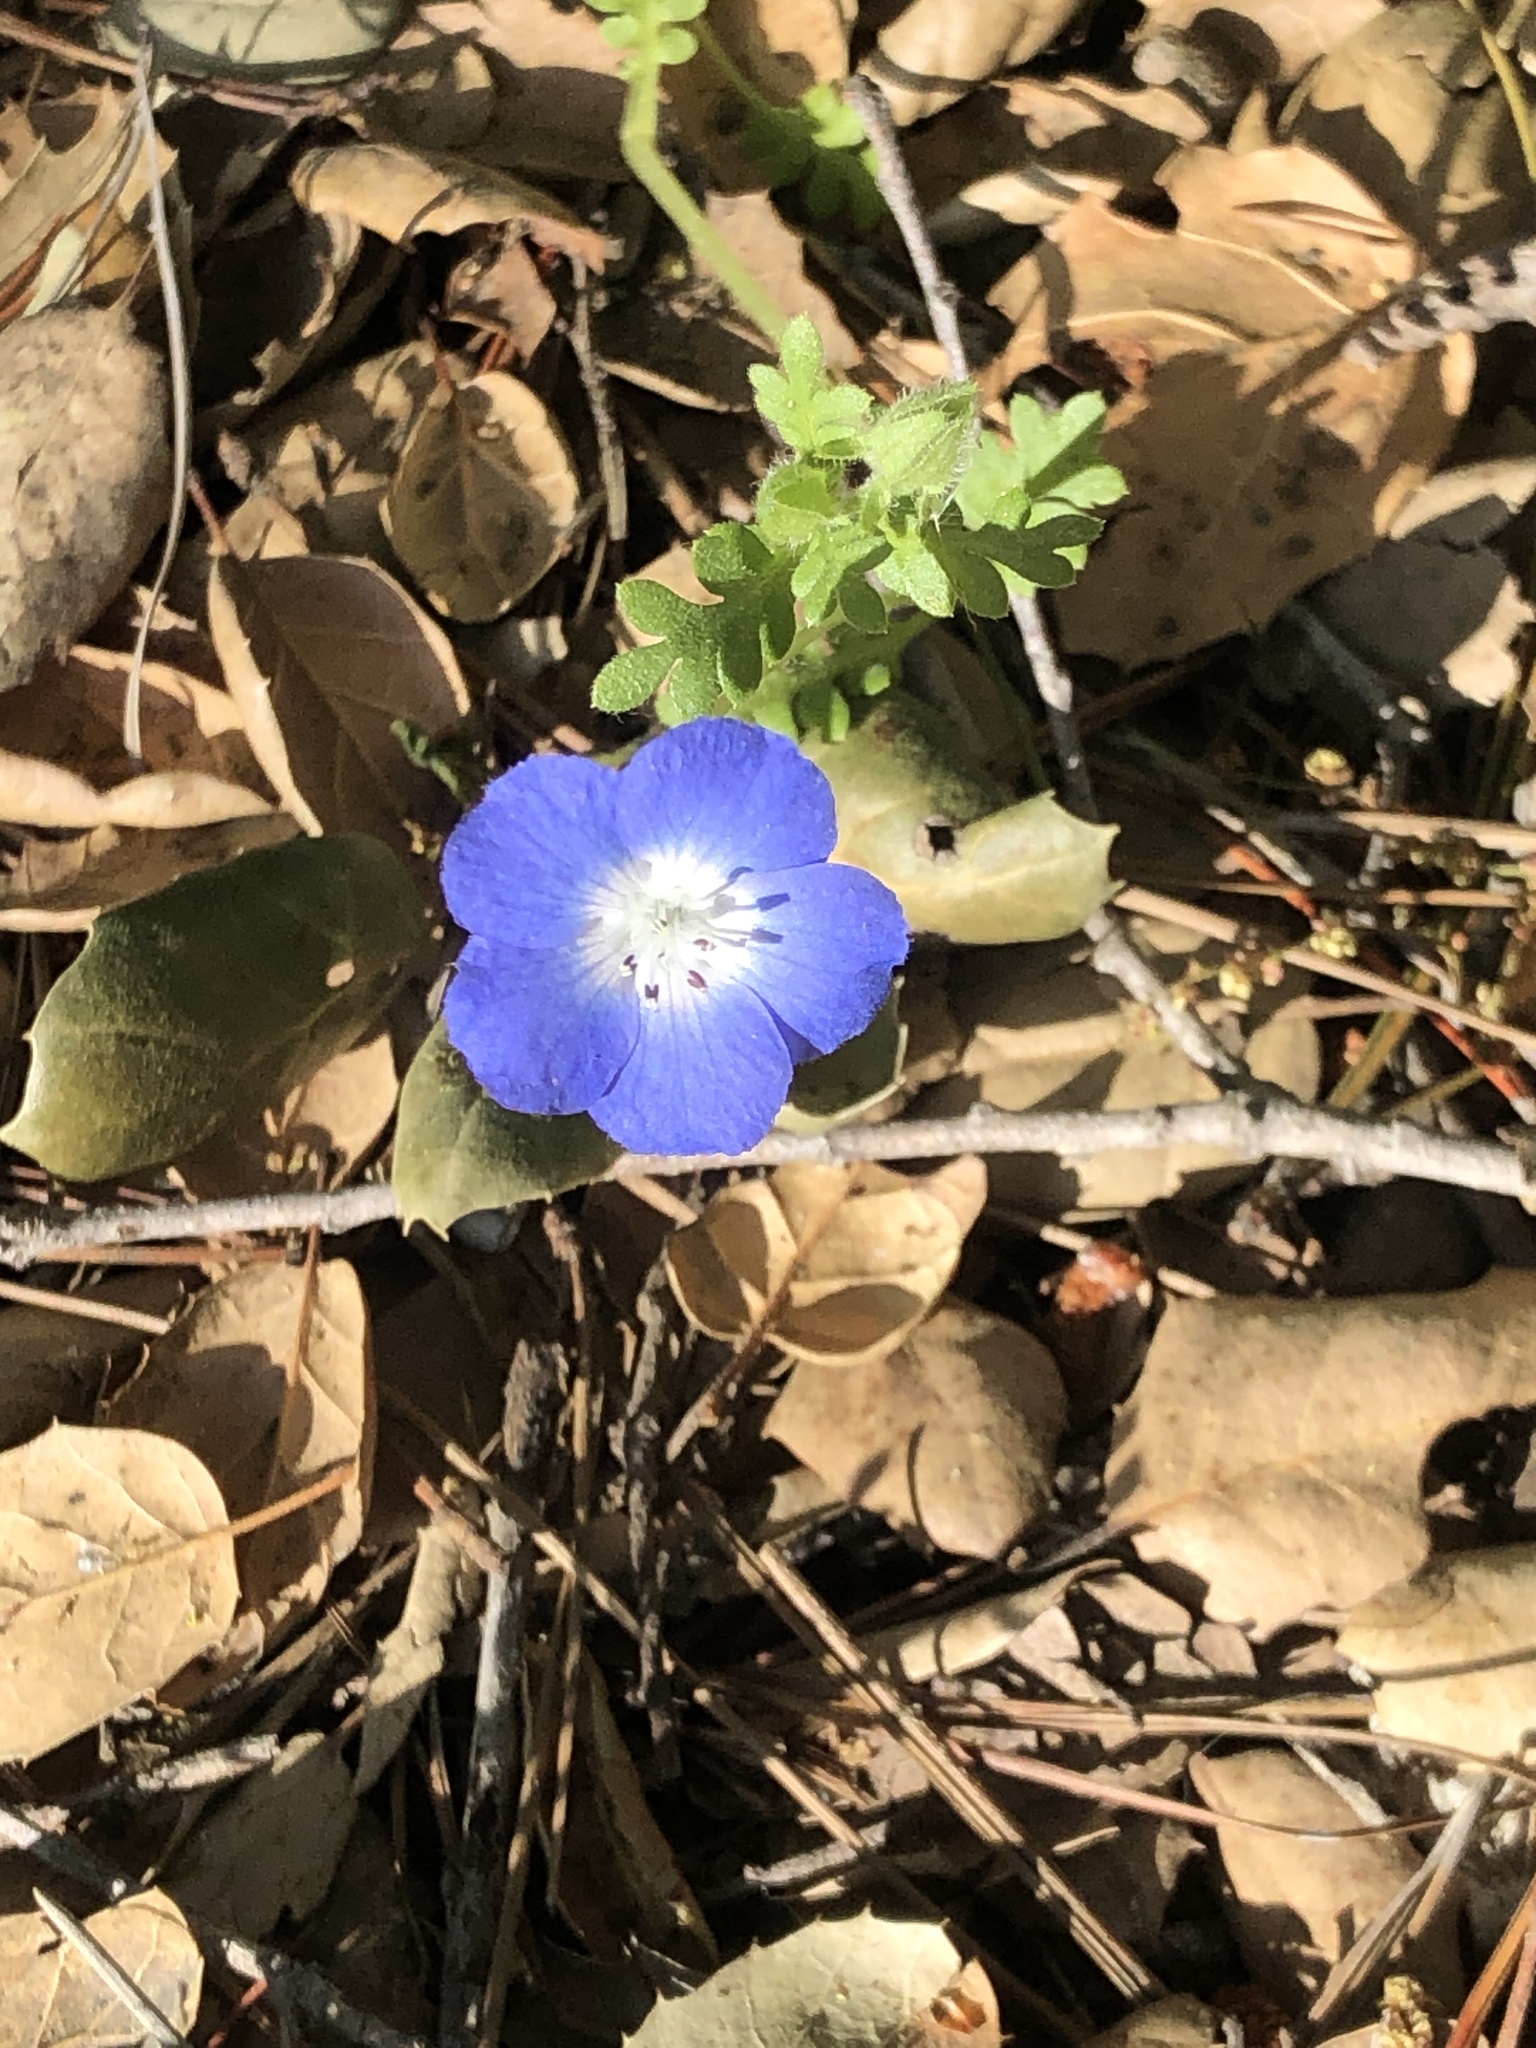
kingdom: Plantae
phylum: Tracheophyta
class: Magnoliopsida
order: Boraginales
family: Hydrophyllaceae
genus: Nemophila
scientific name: Nemophila menziesii
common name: Baby's-blue-eyes
